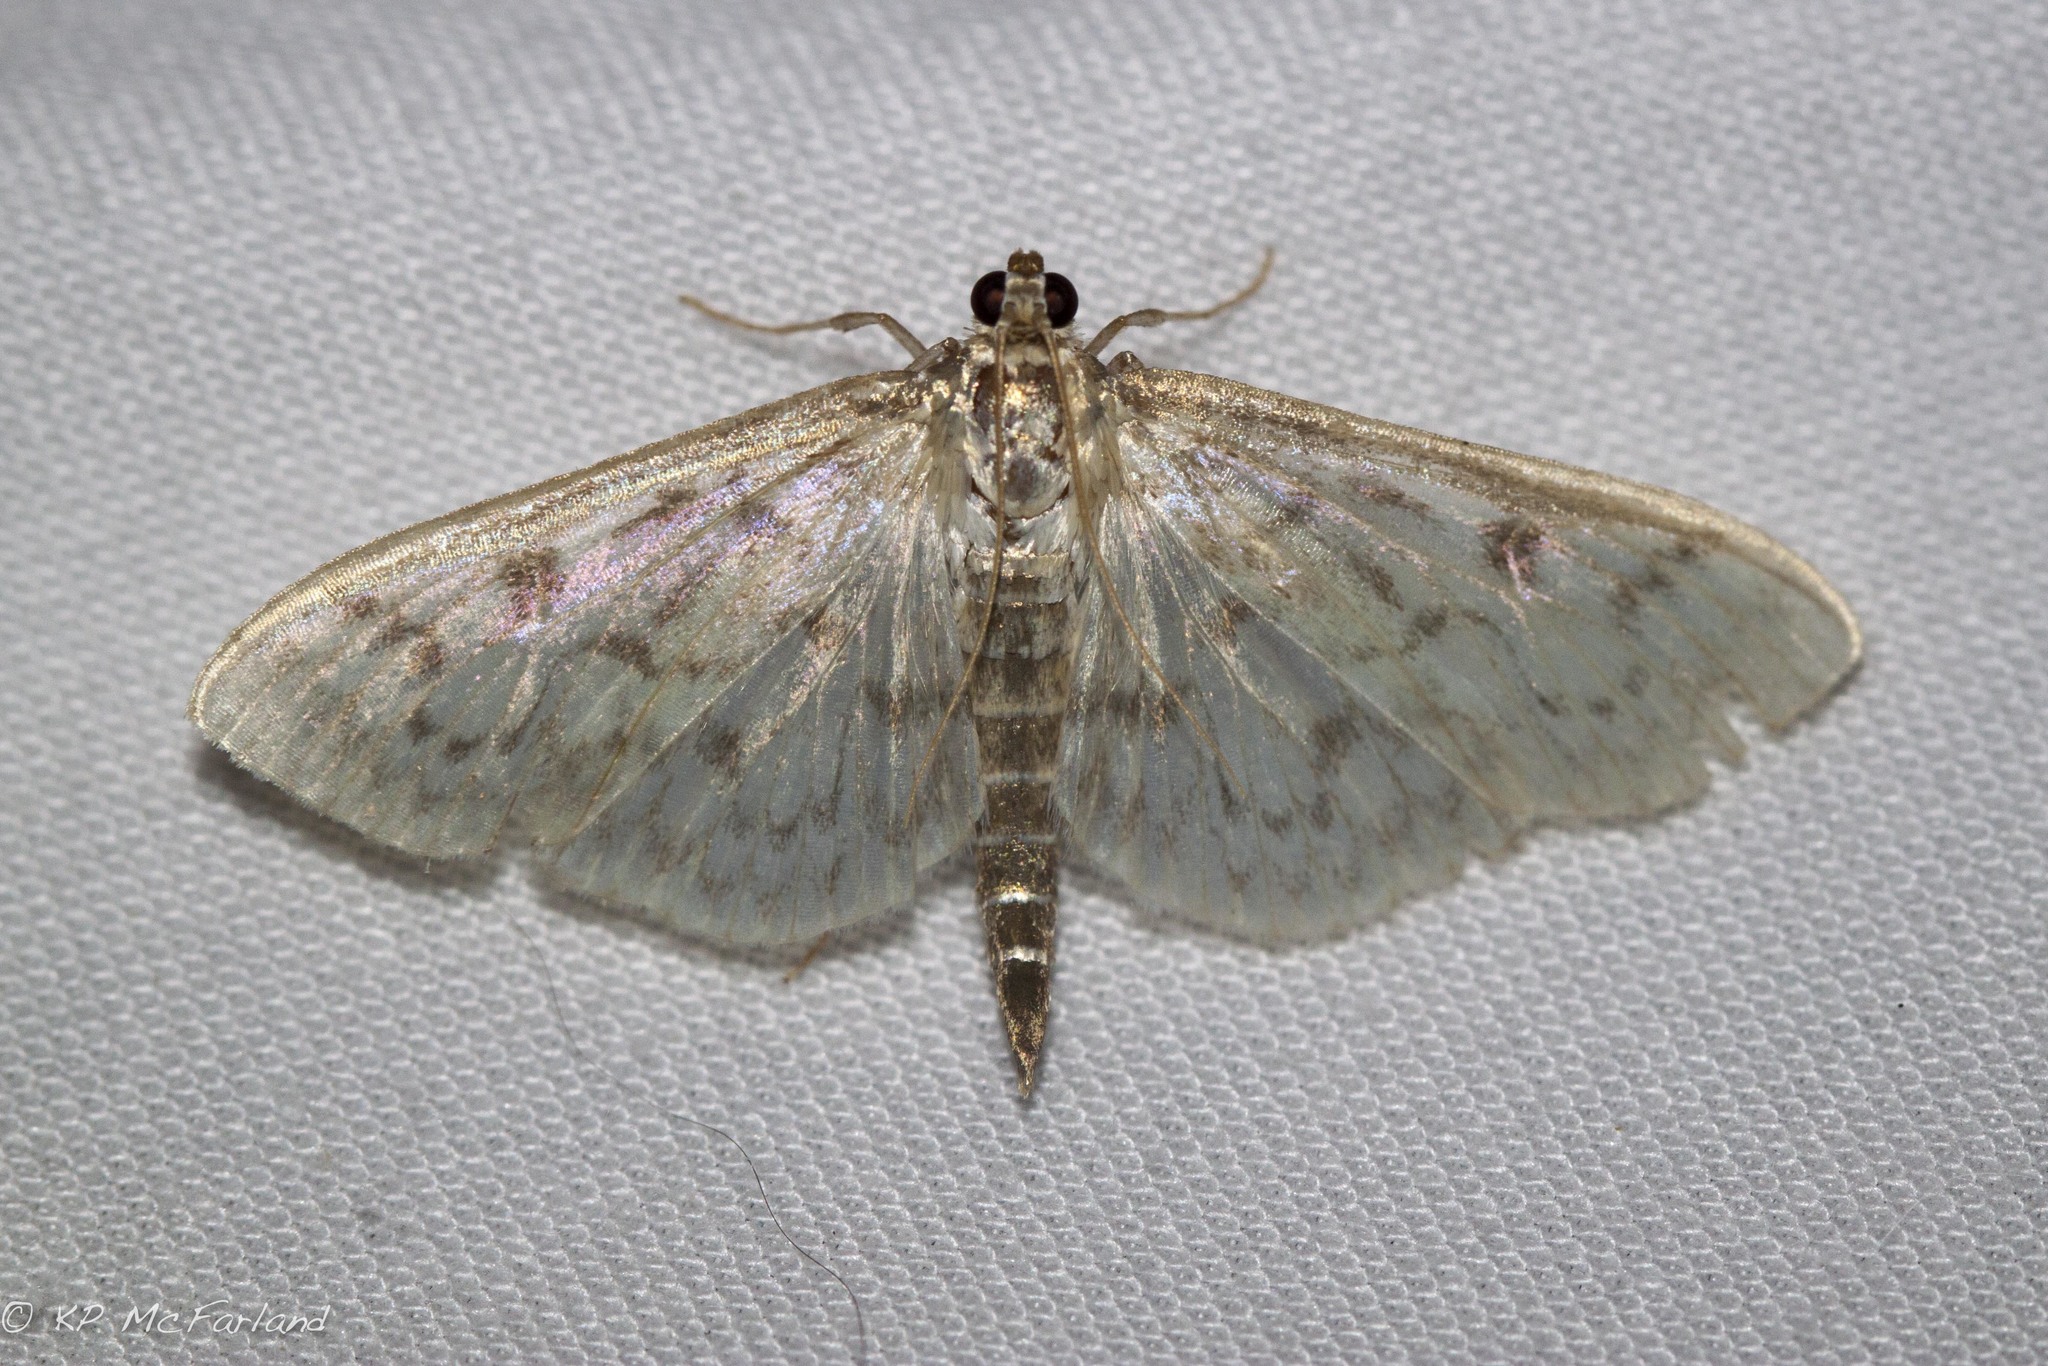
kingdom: Animalia
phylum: Arthropoda
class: Insecta
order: Lepidoptera
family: Crambidae
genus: Herpetogramma
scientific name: Herpetogramma pertextalis
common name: Bold-feathered grass moth
